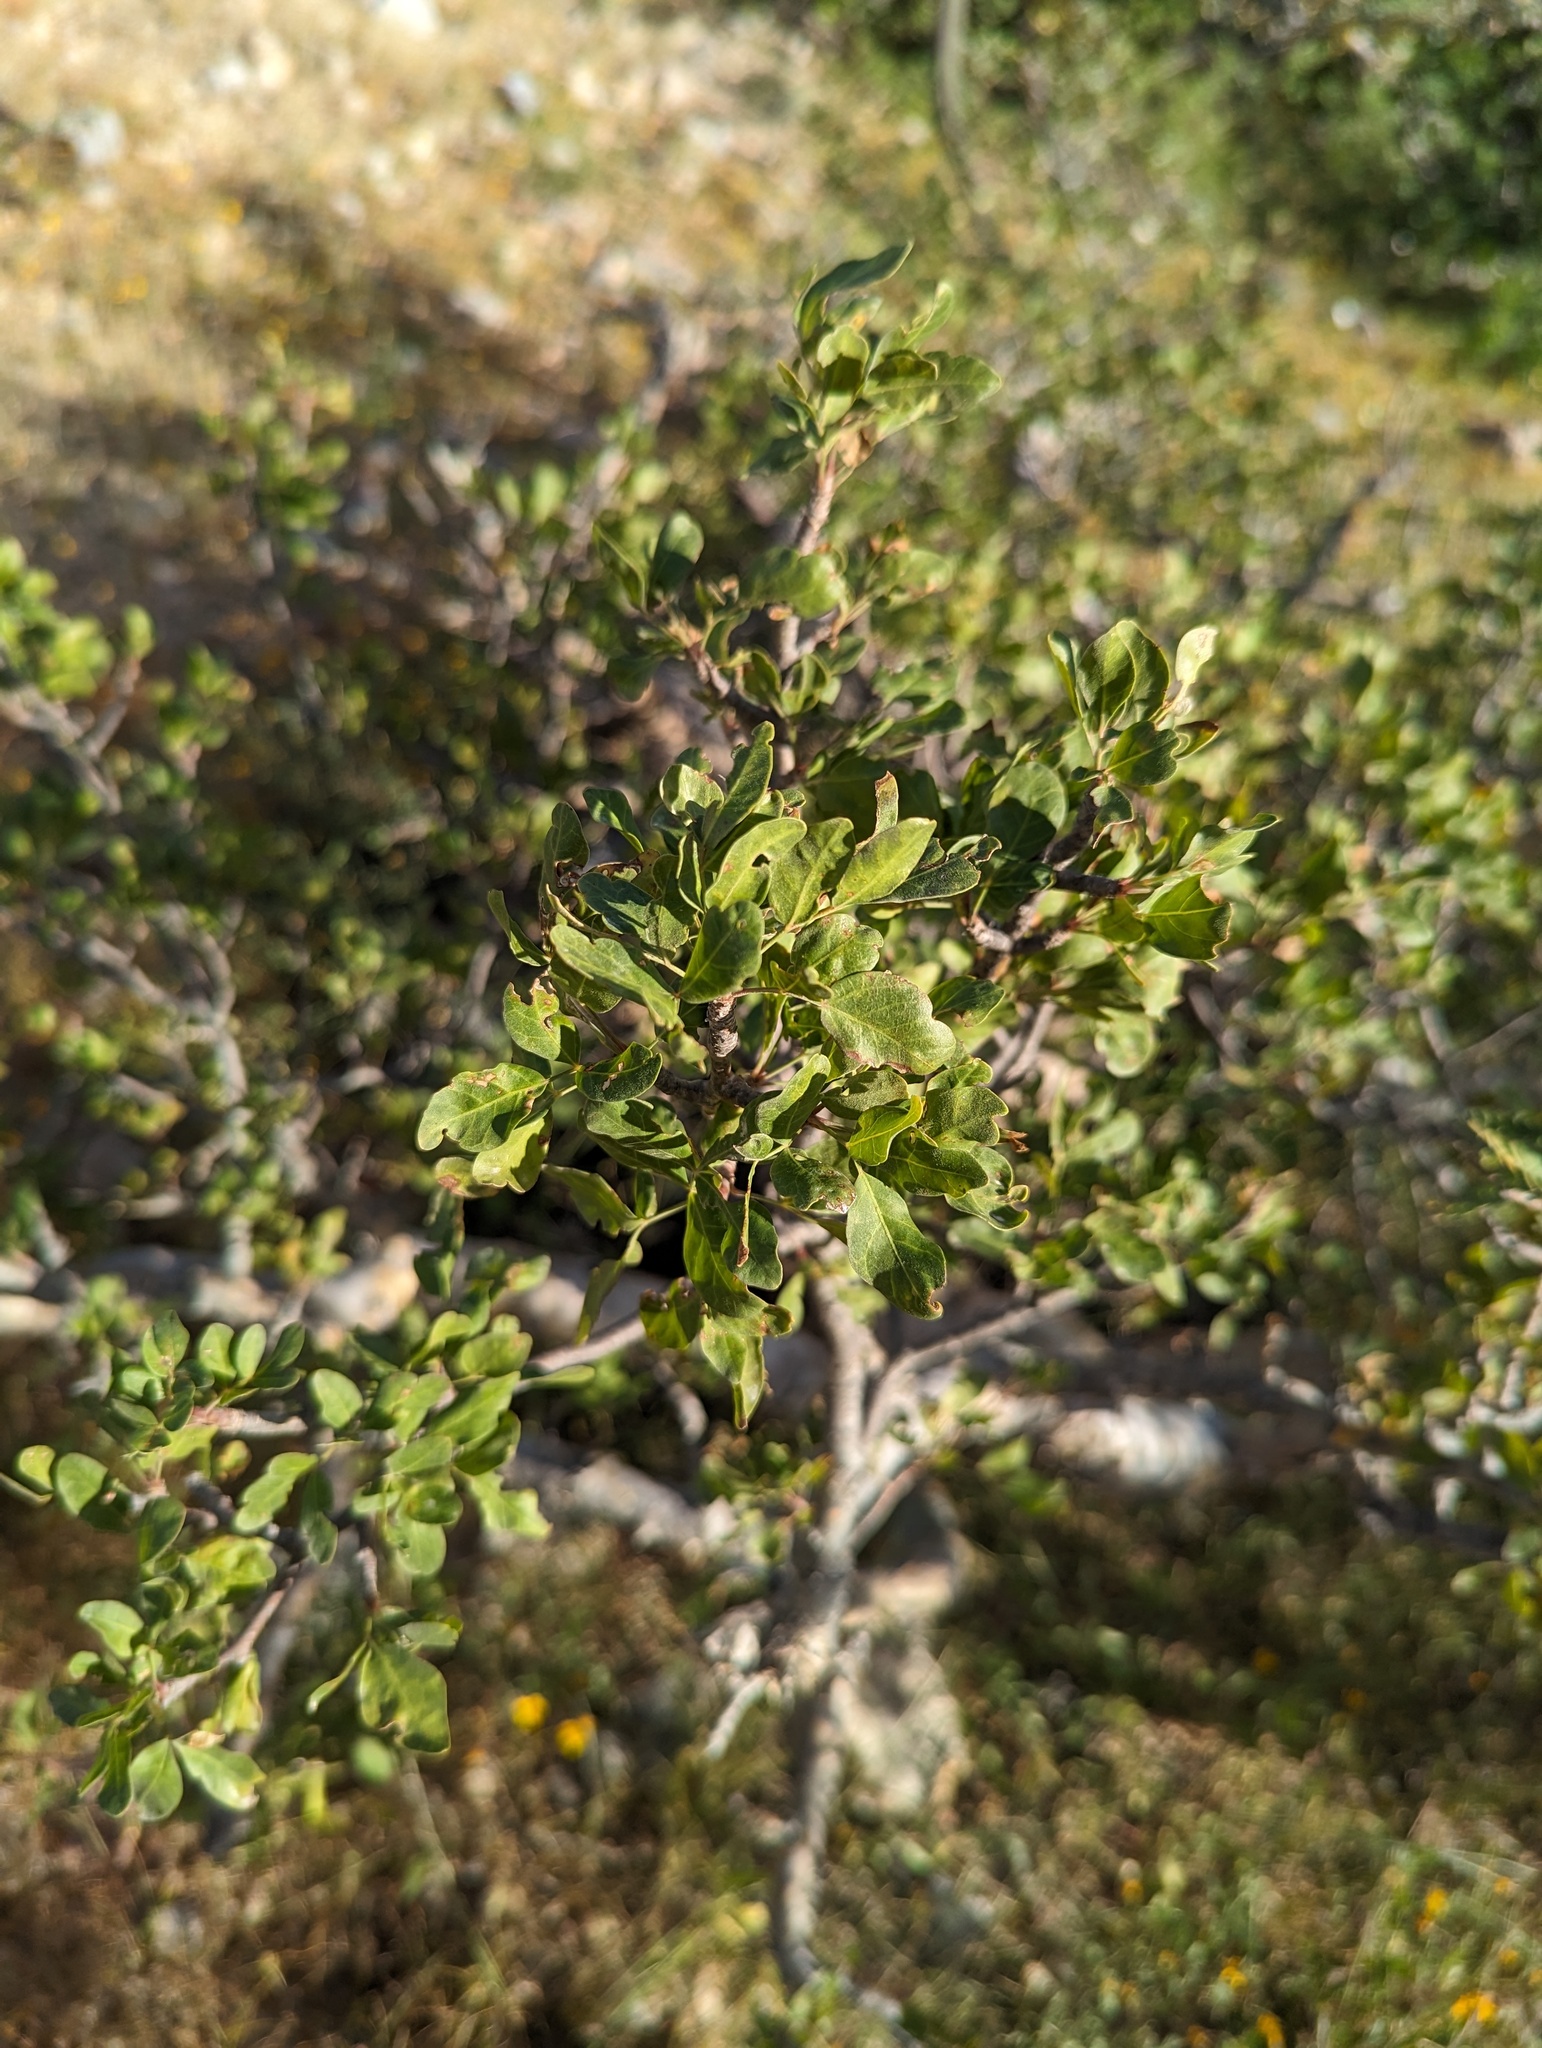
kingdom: Plantae
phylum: Tracheophyta
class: Magnoliopsida
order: Sapindales
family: Burseraceae
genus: Bursera
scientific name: Bursera fagaroides
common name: Elephant tree
